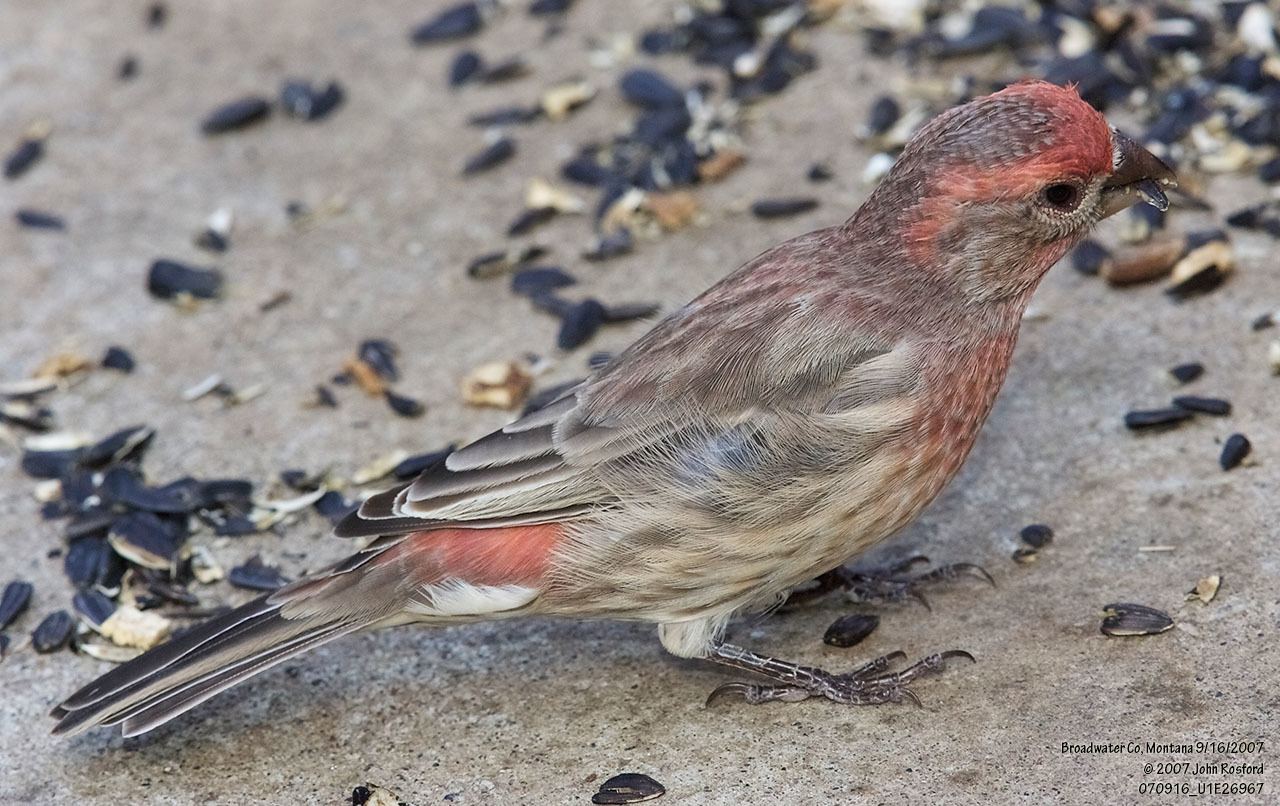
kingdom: Animalia
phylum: Chordata
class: Aves
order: Passeriformes
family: Fringillidae
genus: Haemorhous
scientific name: Haemorhous mexicanus
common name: House finch
